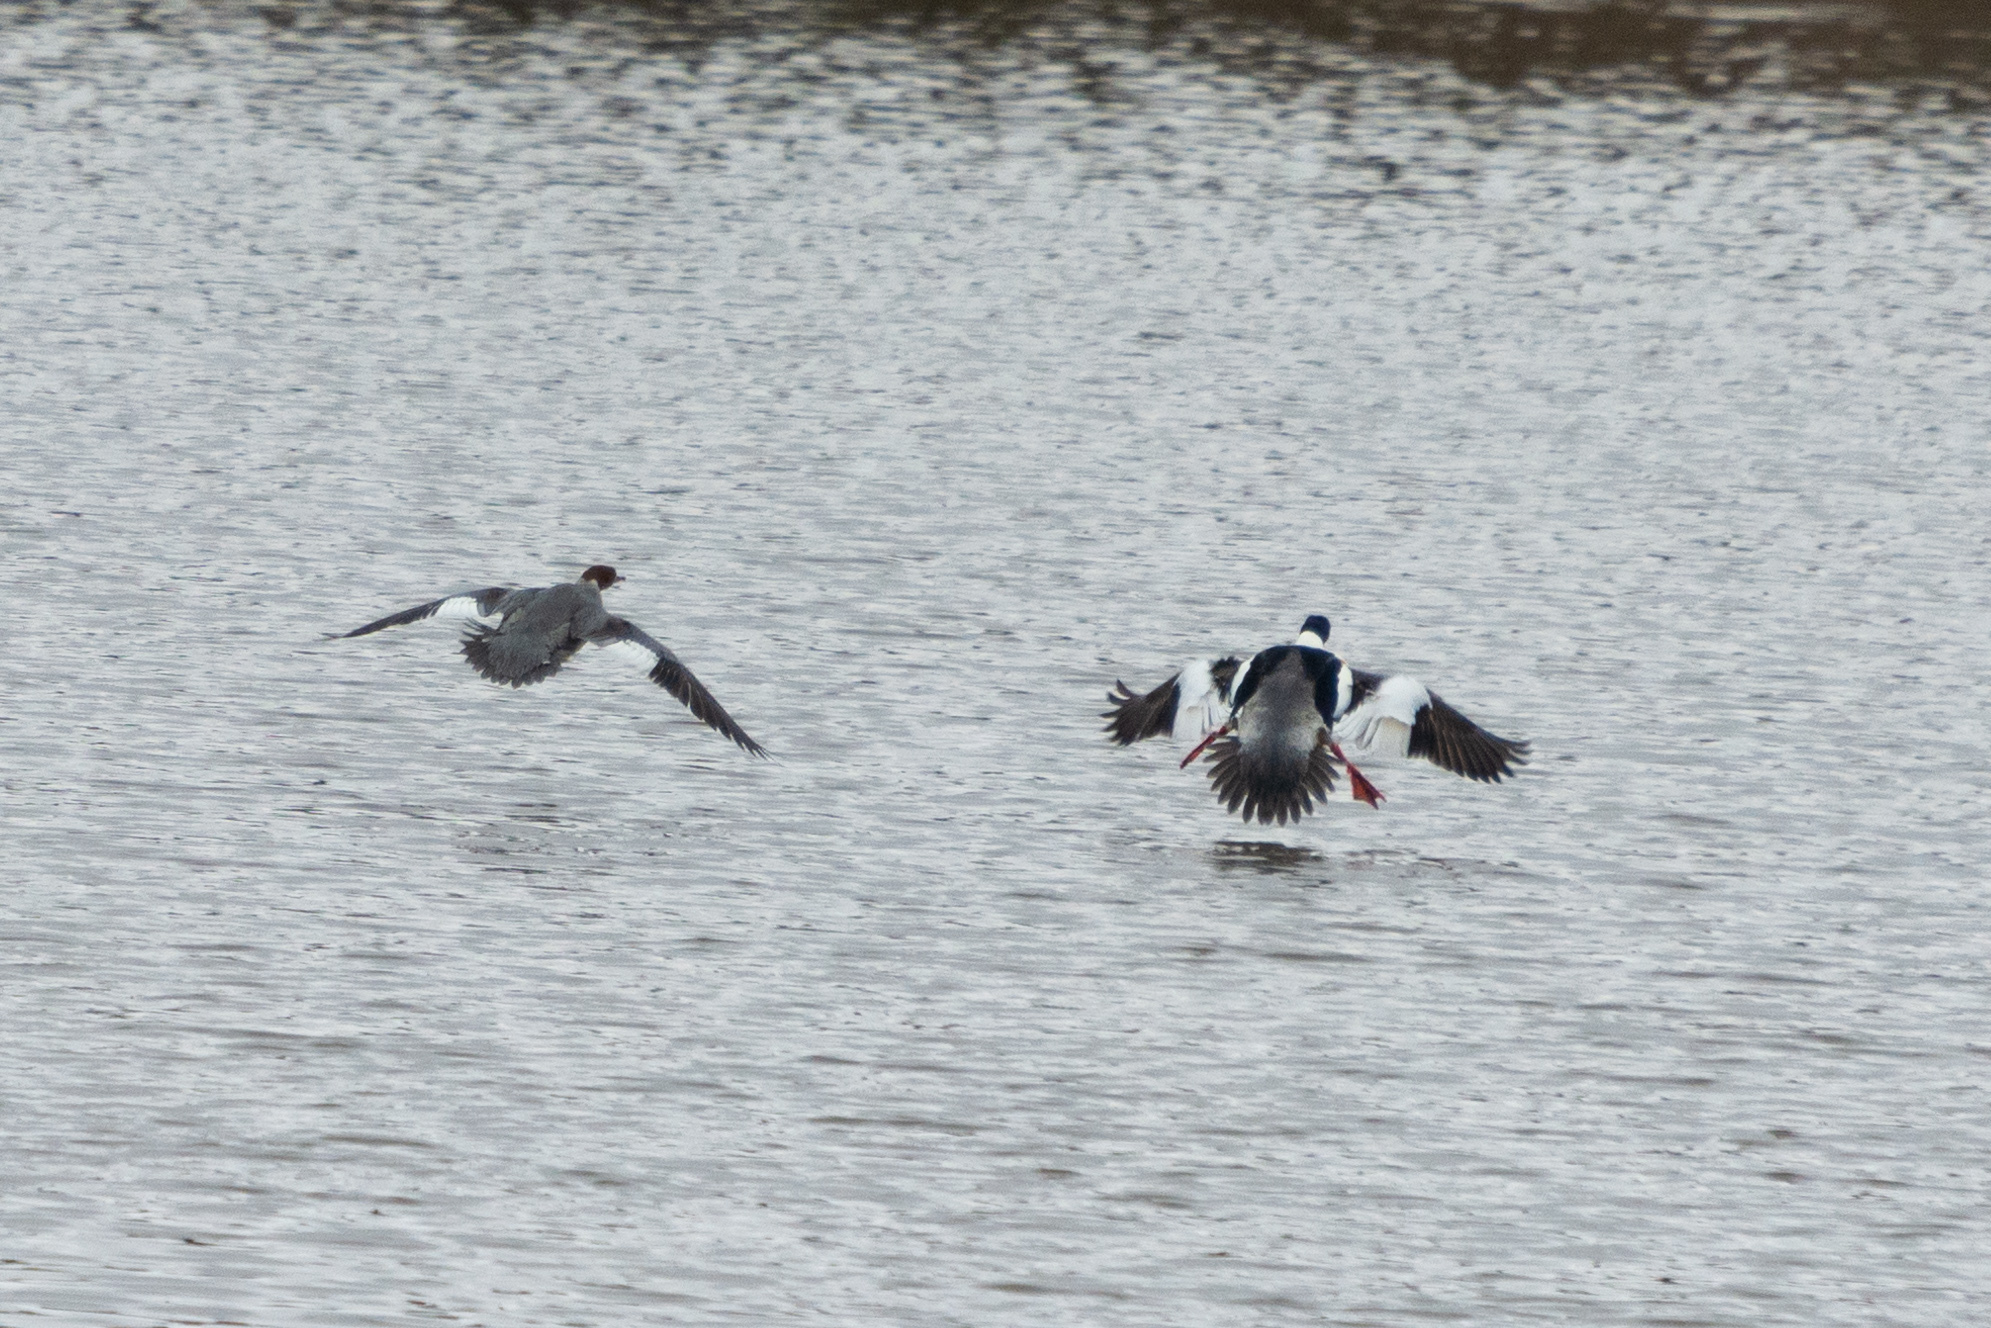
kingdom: Animalia
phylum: Chordata
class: Aves
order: Anseriformes
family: Anatidae
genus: Mergus
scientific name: Mergus merganser
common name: Common merganser
